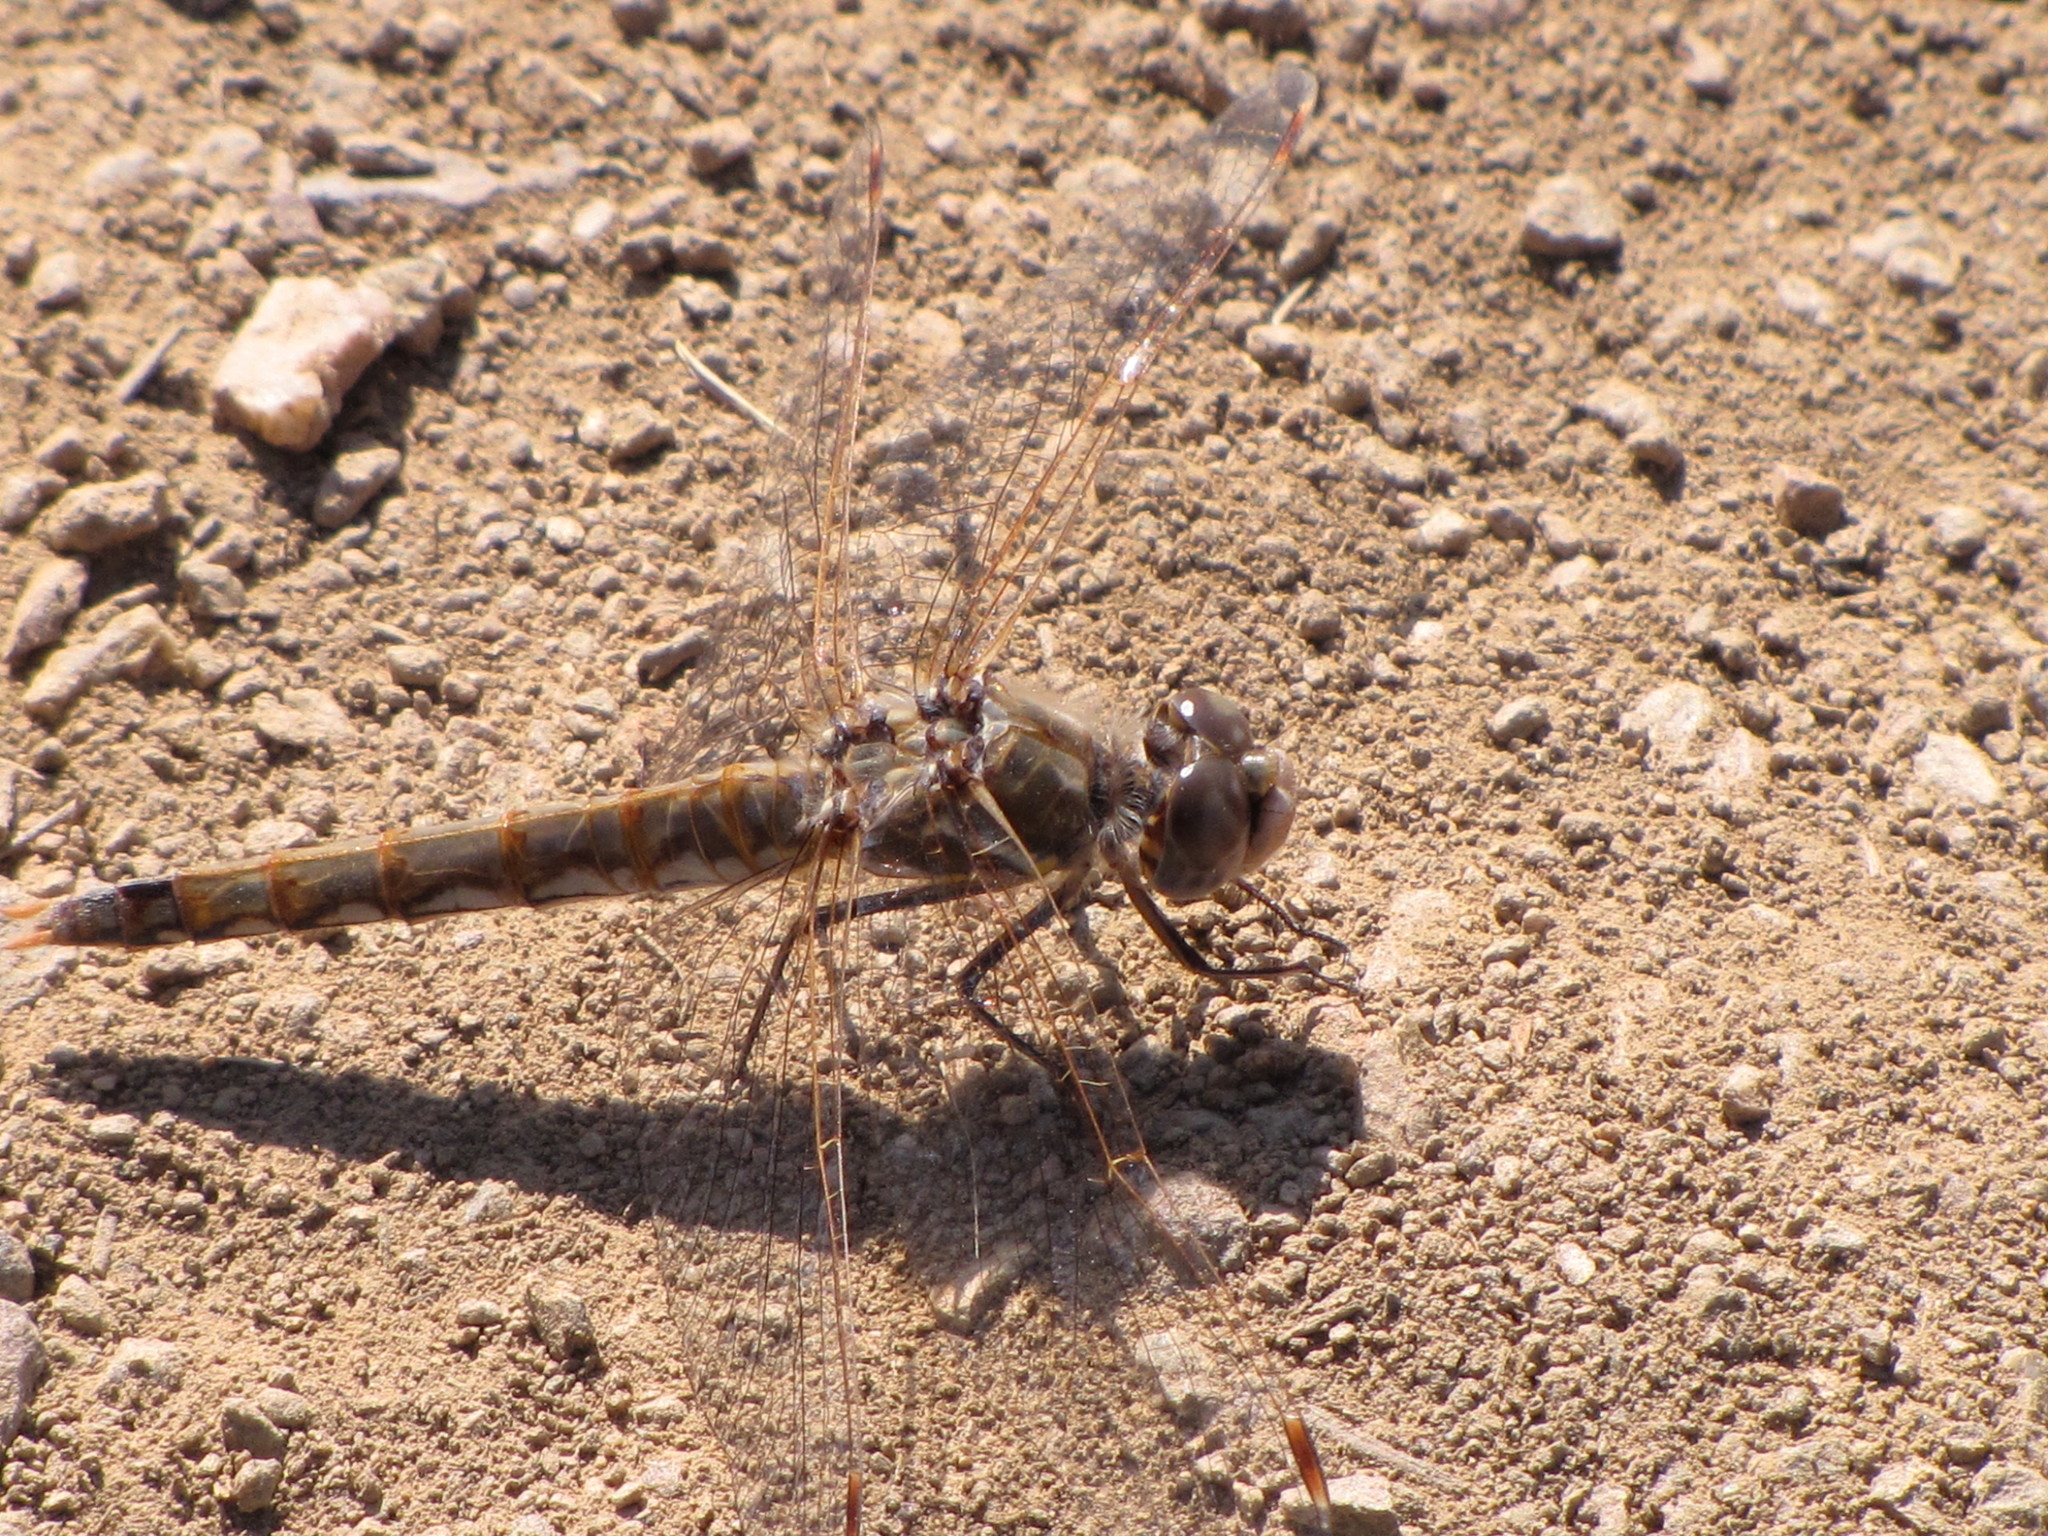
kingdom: Animalia
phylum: Arthropoda
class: Insecta
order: Odonata
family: Libellulidae
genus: Sympetrum
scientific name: Sympetrum corruptum
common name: Variegated meadowhawk
